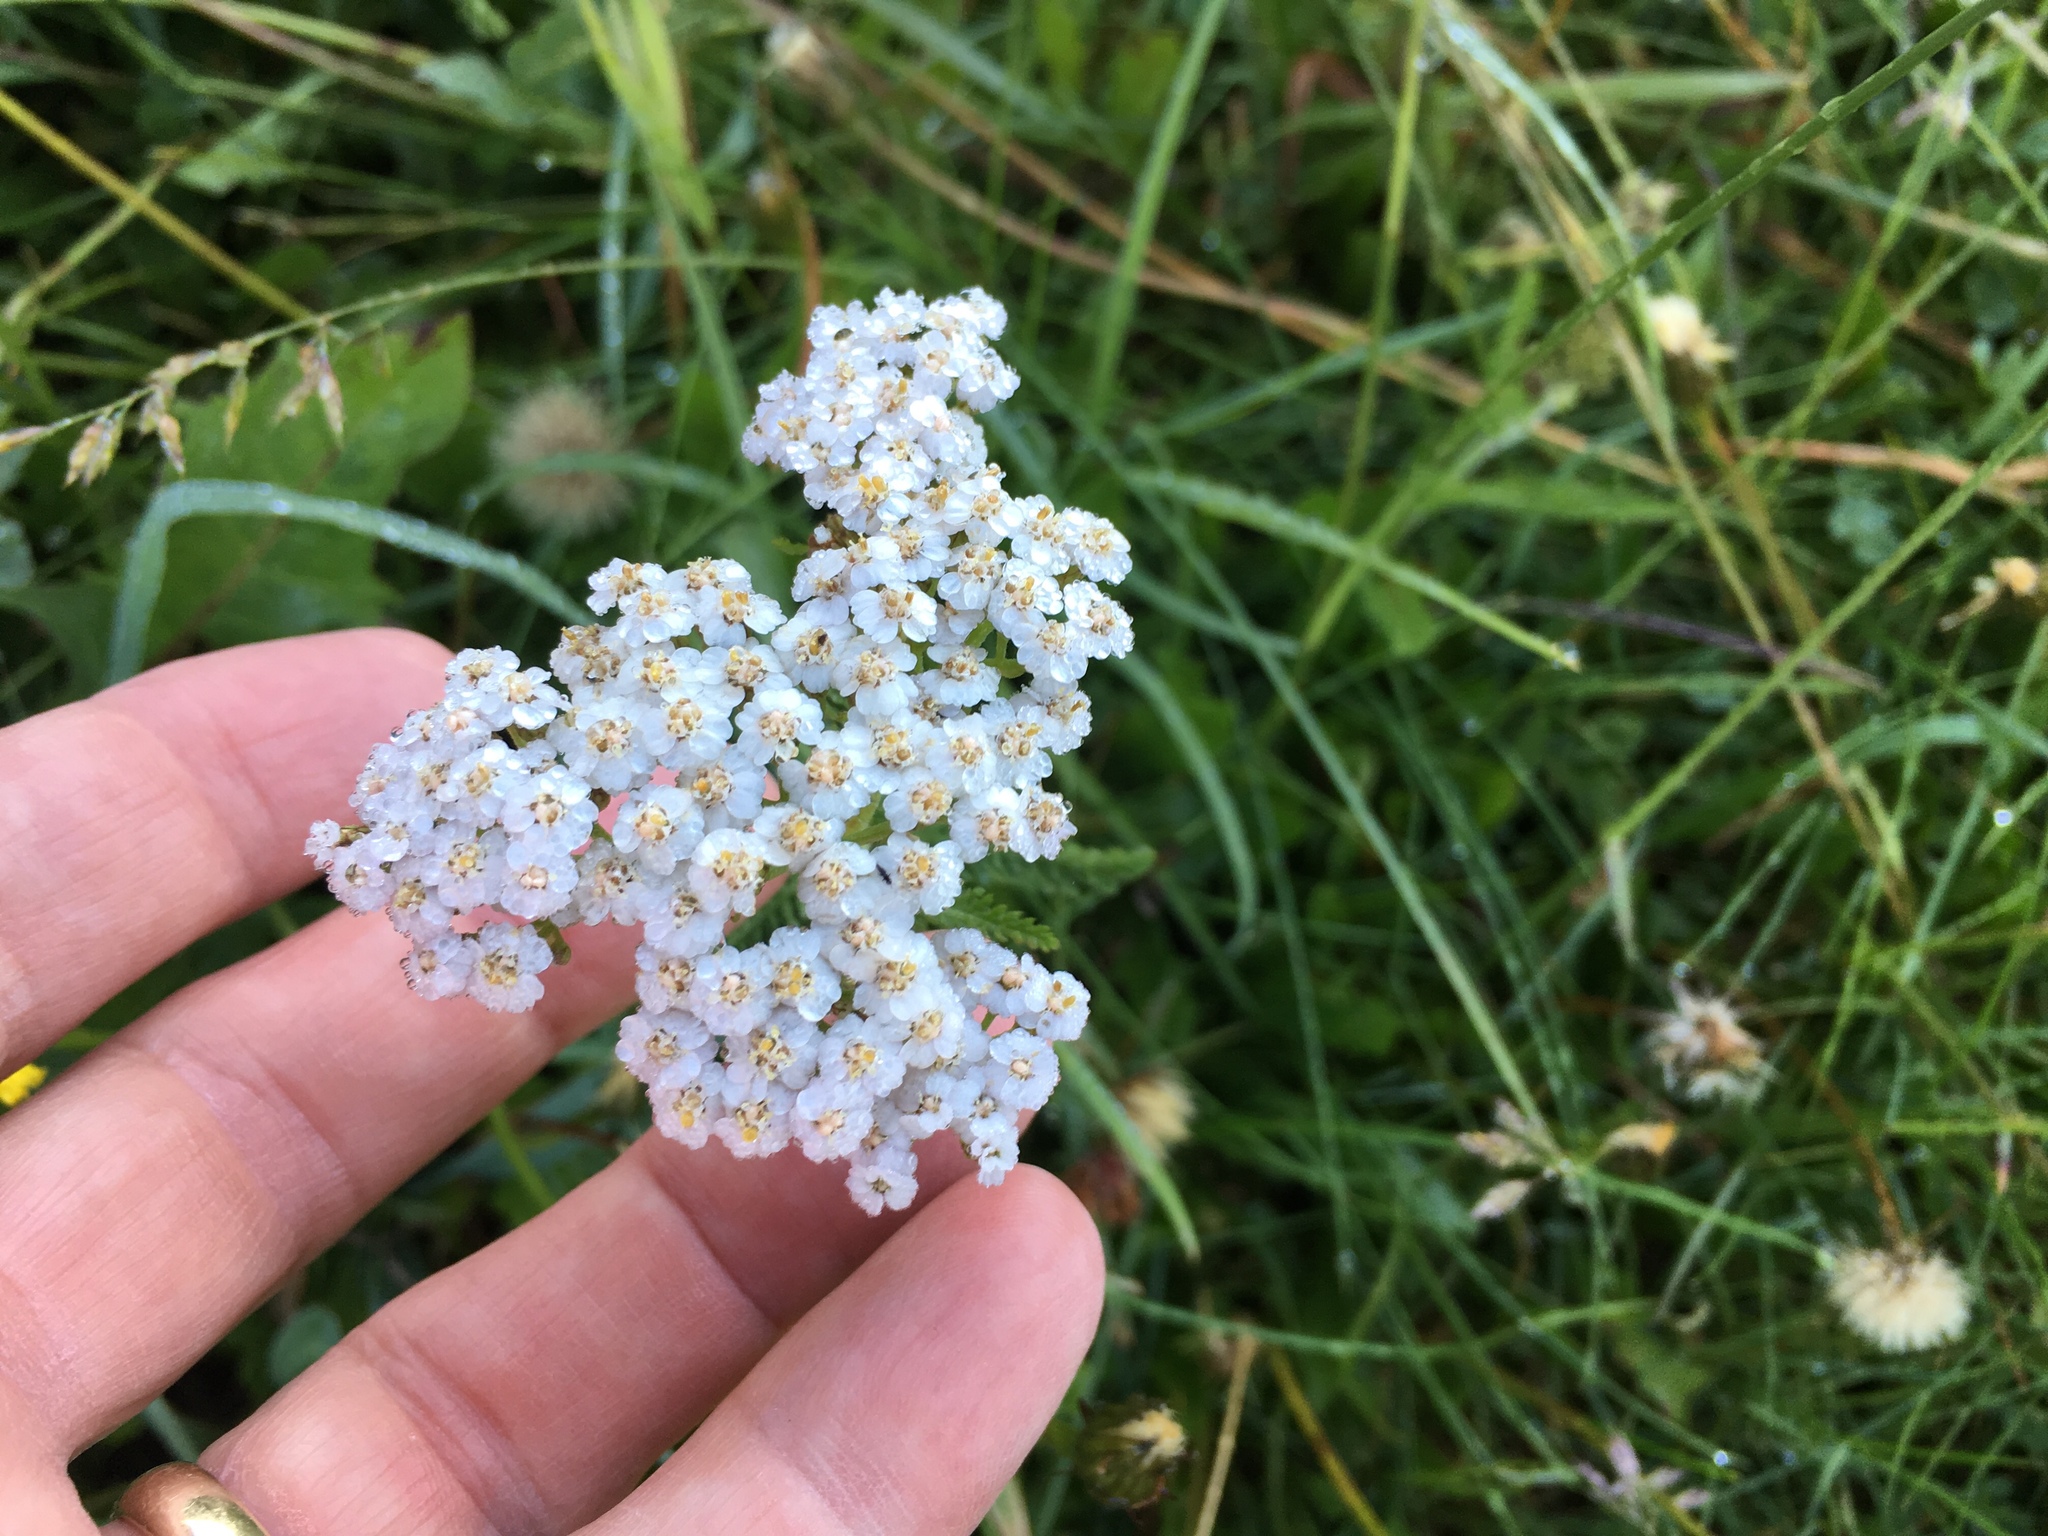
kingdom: Plantae
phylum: Tracheophyta
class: Magnoliopsida
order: Asterales
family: Asteraceae
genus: Achillea
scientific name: Achillea millefolium
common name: Yarrow
